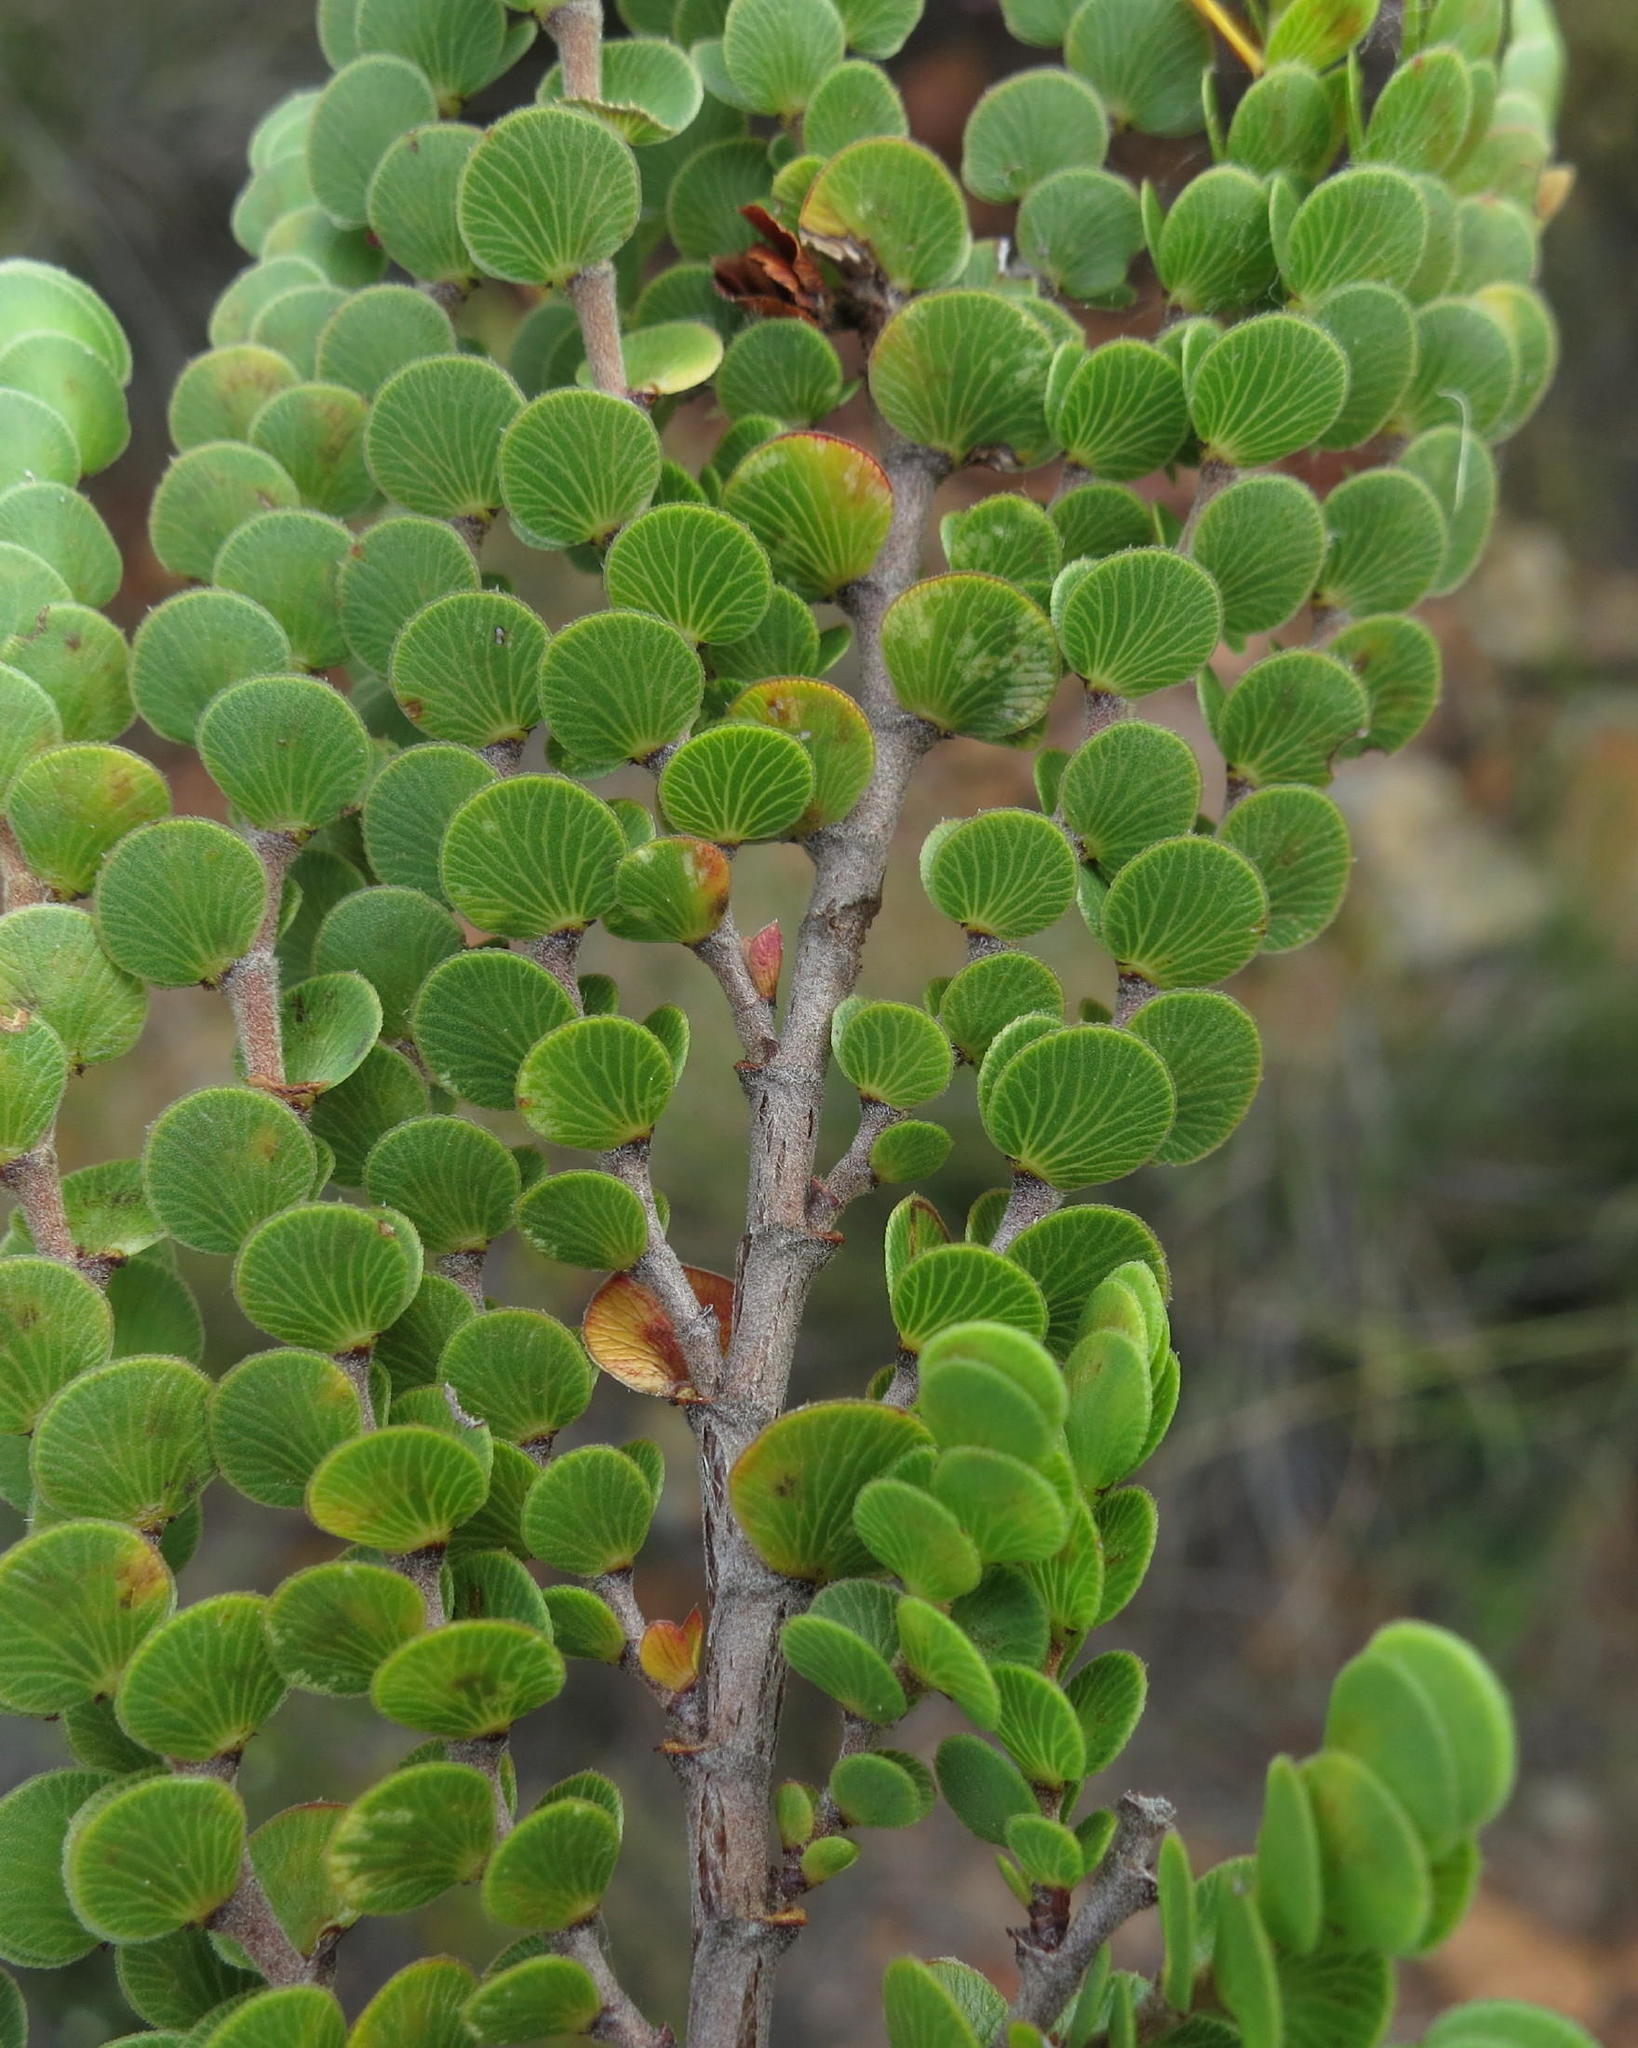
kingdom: Plantae
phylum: Tracheophyta
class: Magnoliopsida
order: Rosales
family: Rosaceae
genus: Cliffortia
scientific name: Cliffortia pulchella
